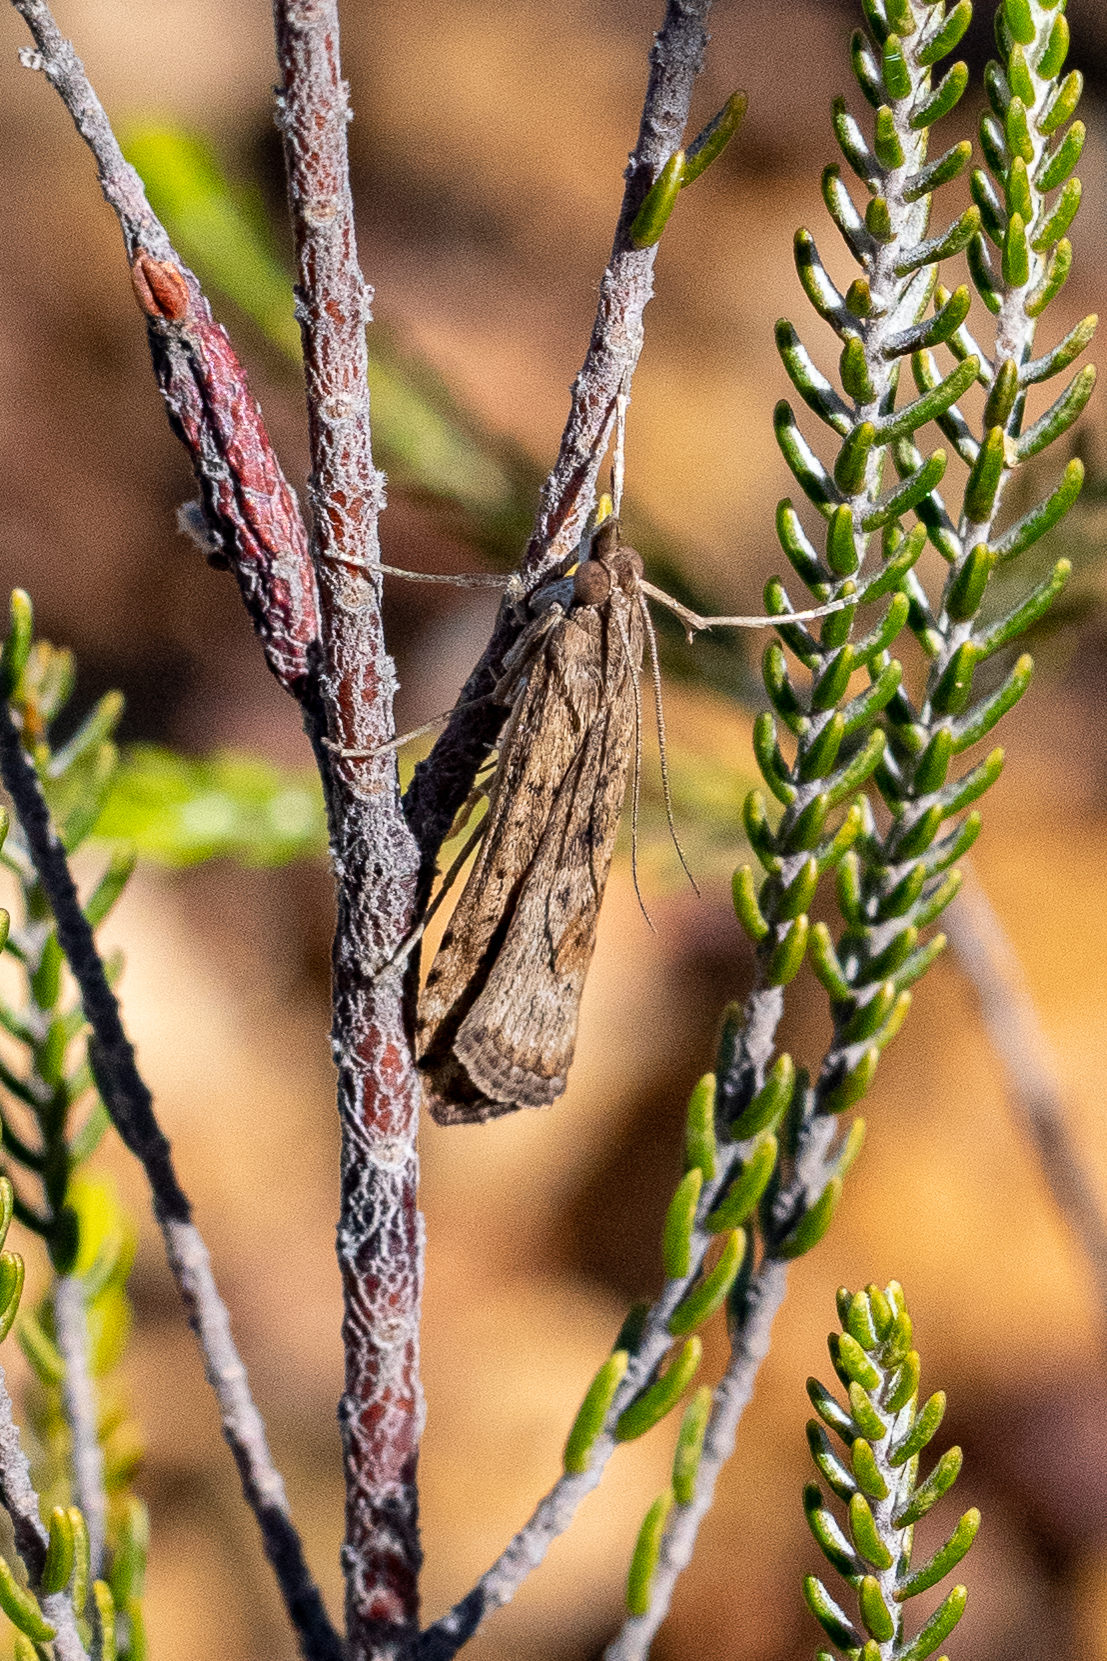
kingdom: Animalia
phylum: Arthropoda
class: Insecta
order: Lepidoptera
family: Crambidae
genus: Nomophila
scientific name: Nomophila noctuella
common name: Rush veneer
